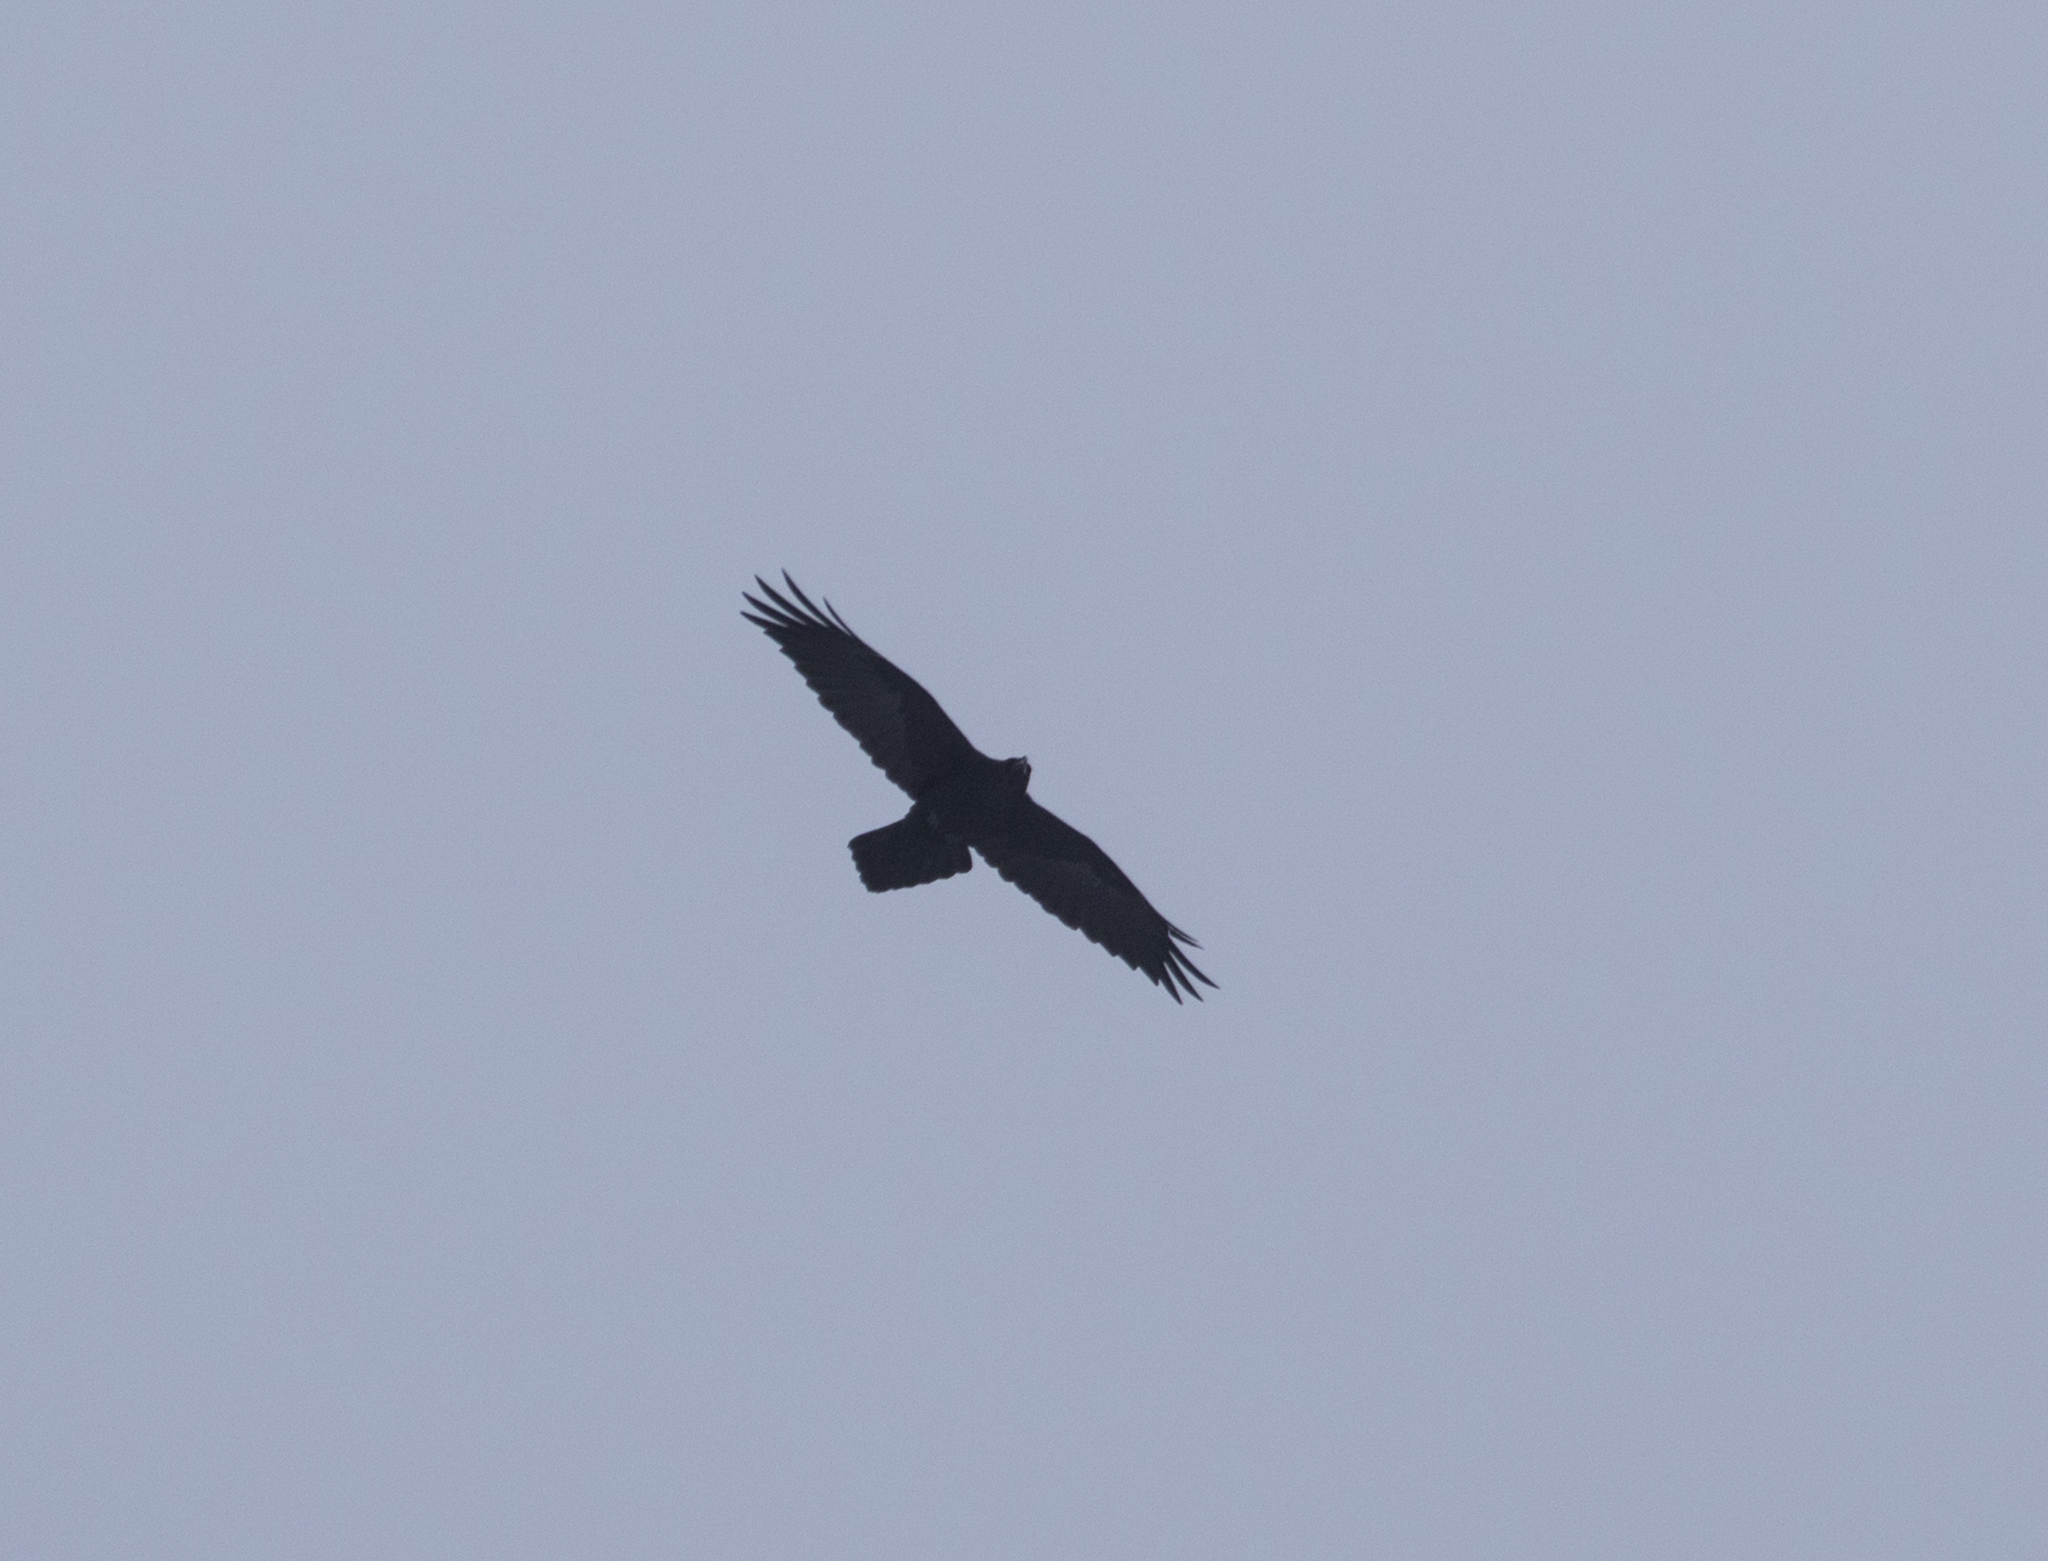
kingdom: Animalia
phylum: Chordata
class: Aves
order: Passeriformes
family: Corvidae
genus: Corvus
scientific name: Corvus corax
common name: Common raven
